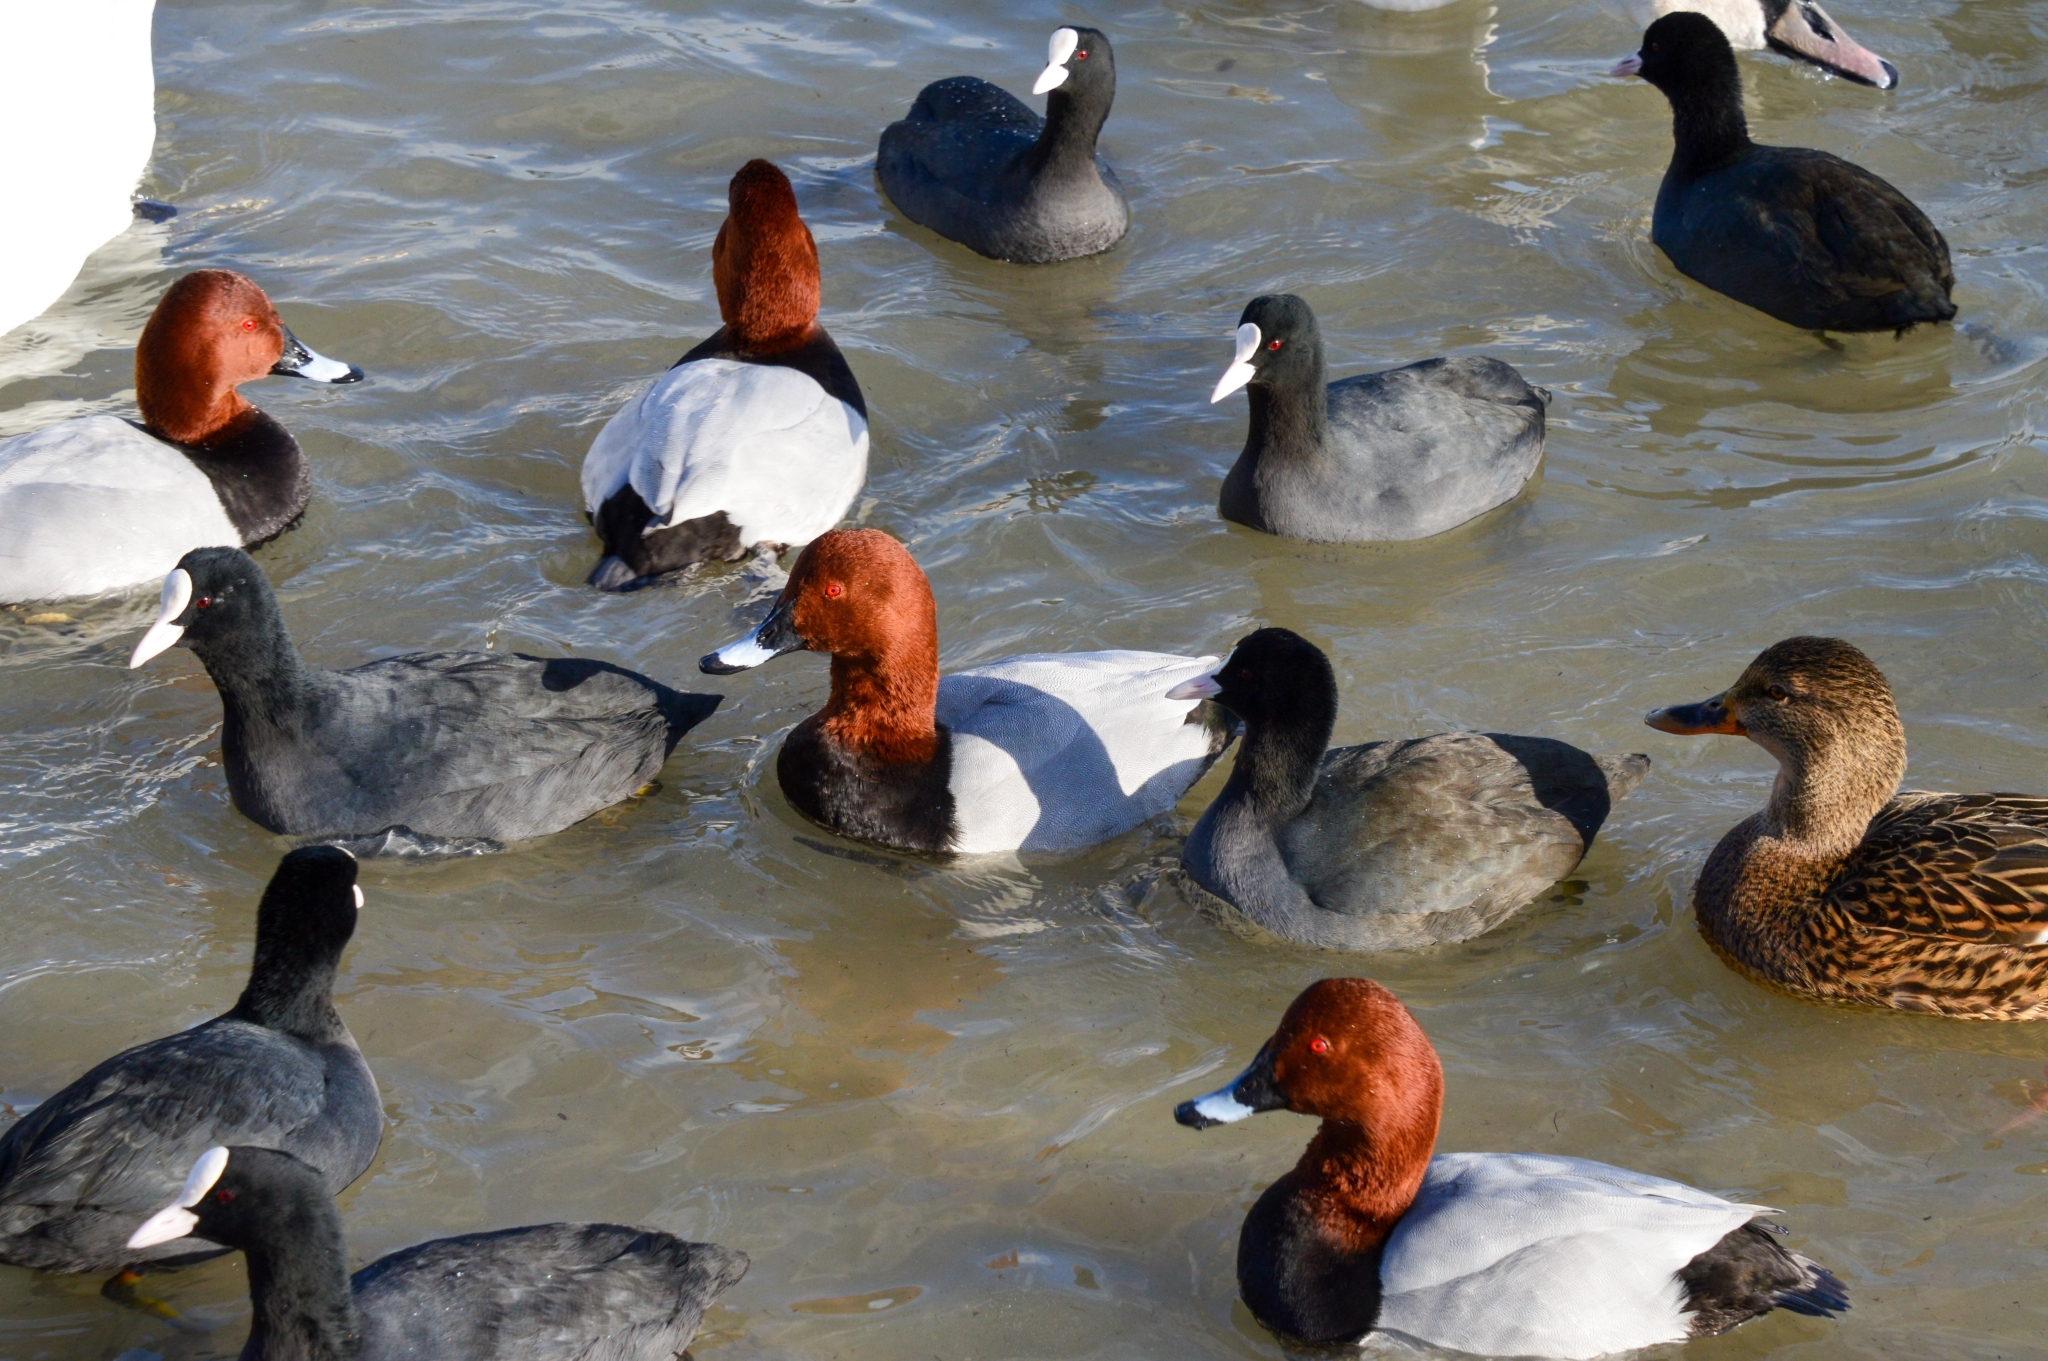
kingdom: Animalia
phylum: Chordata
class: Aves
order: Anseriformes
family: Anatidae
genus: Aythya
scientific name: Aythya ferina
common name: Common pochard
